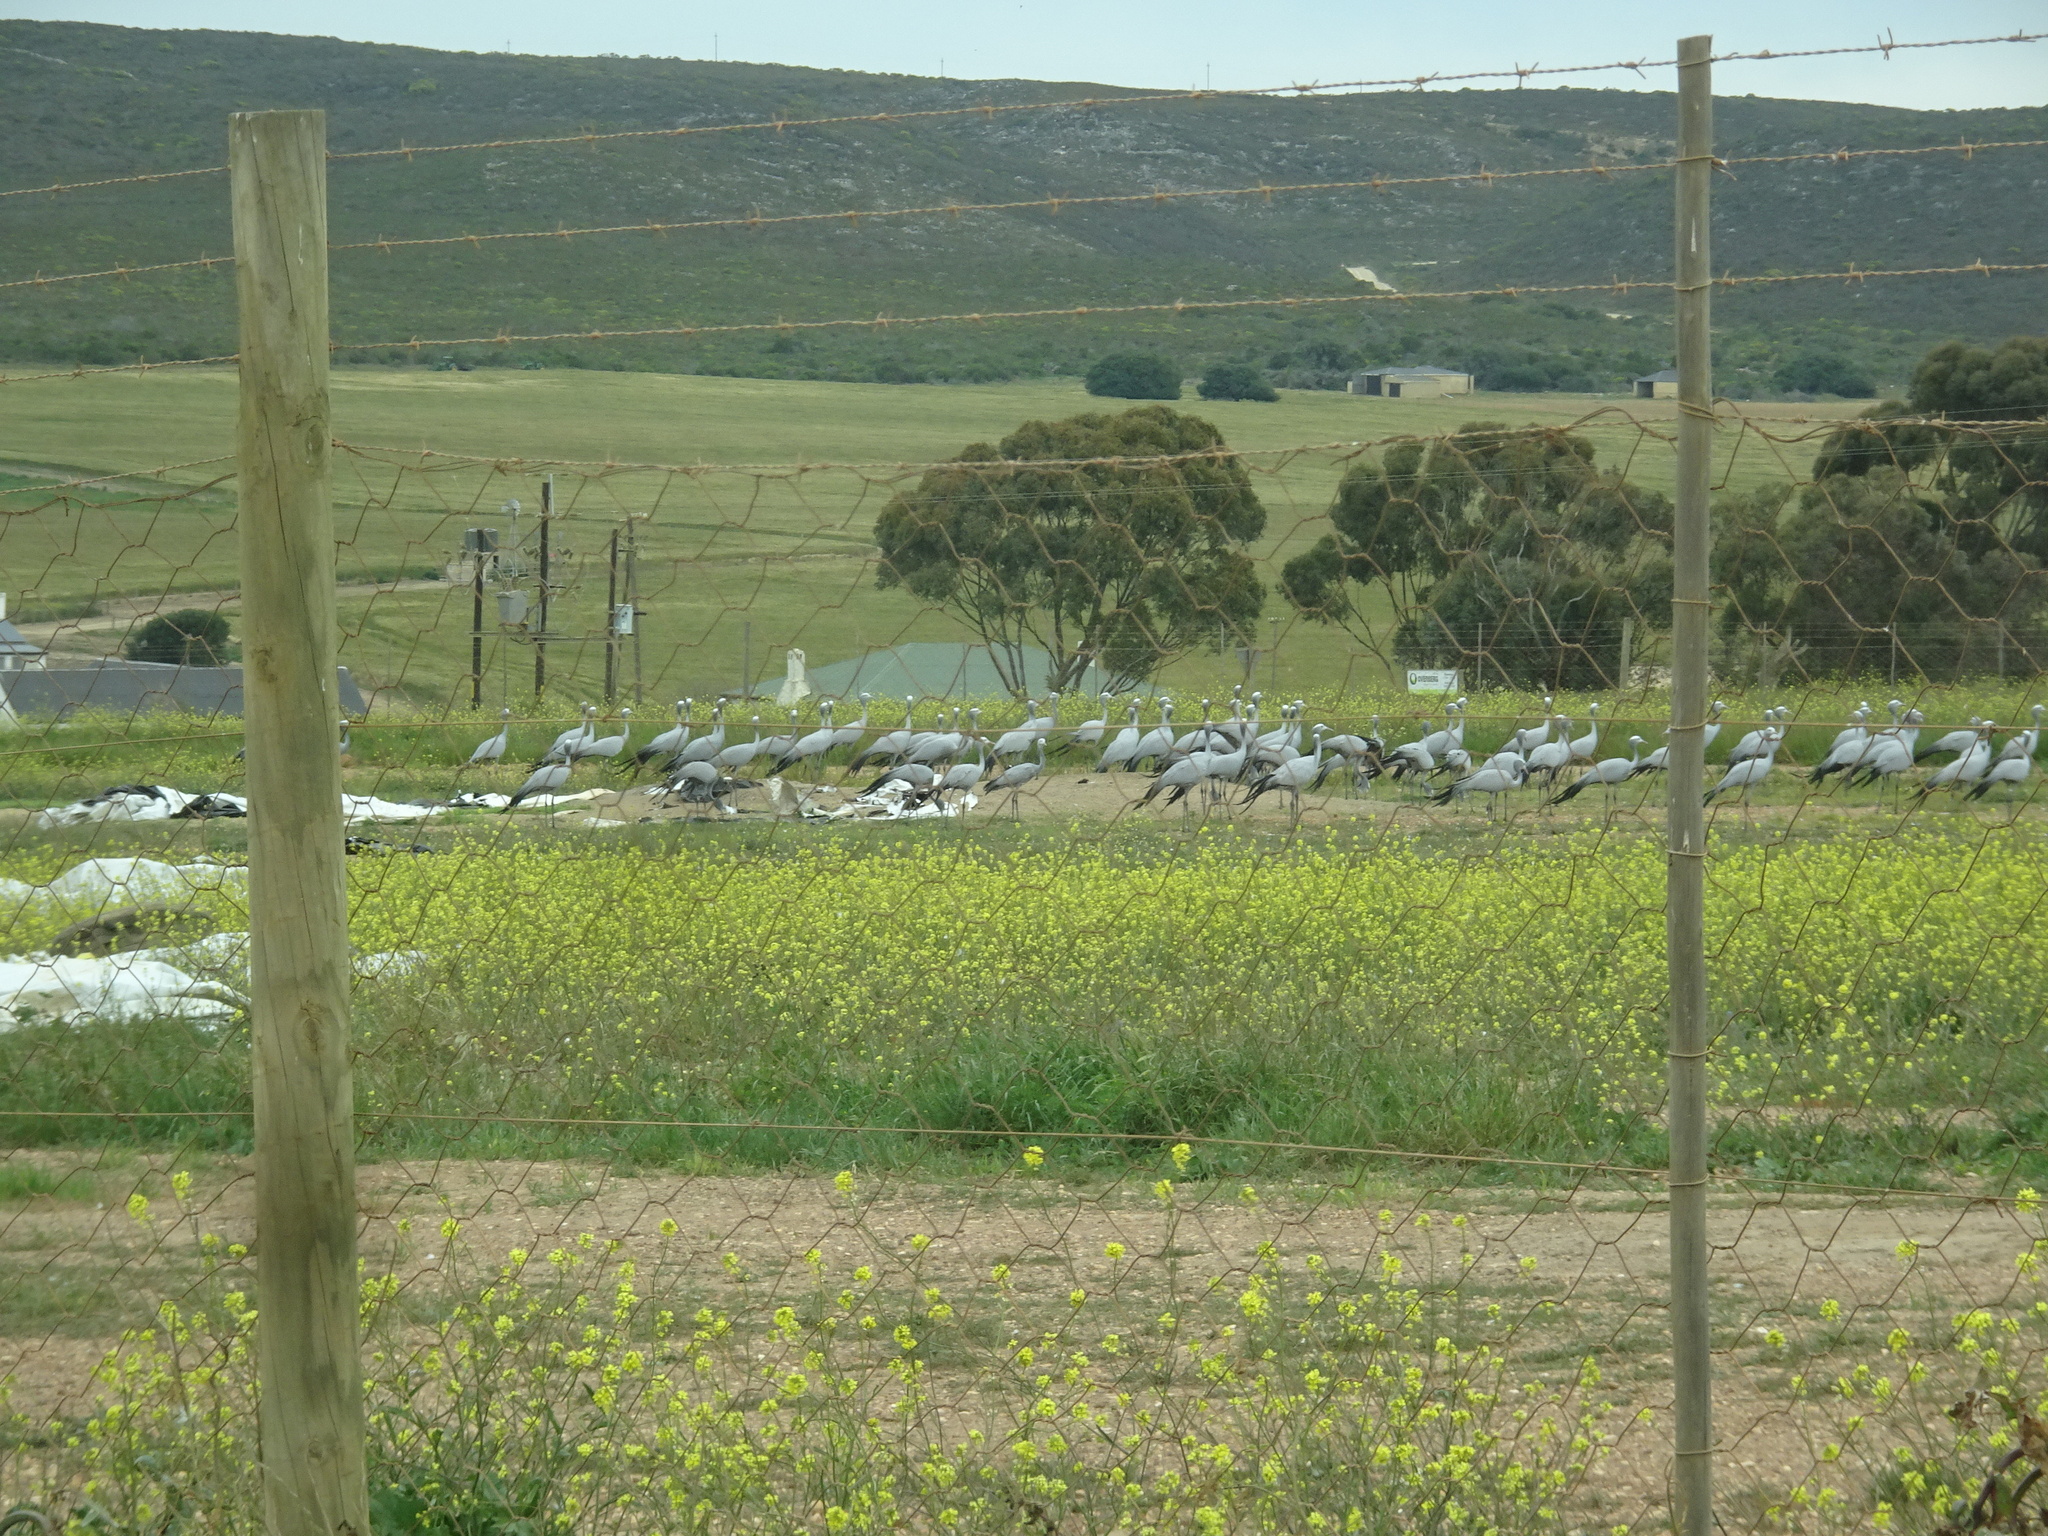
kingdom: Animalia
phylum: Chordata
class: Aves
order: Gruiformes
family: Gruidae
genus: Anthropoides
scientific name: Anthropoides paradiseus
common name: Blue crane
